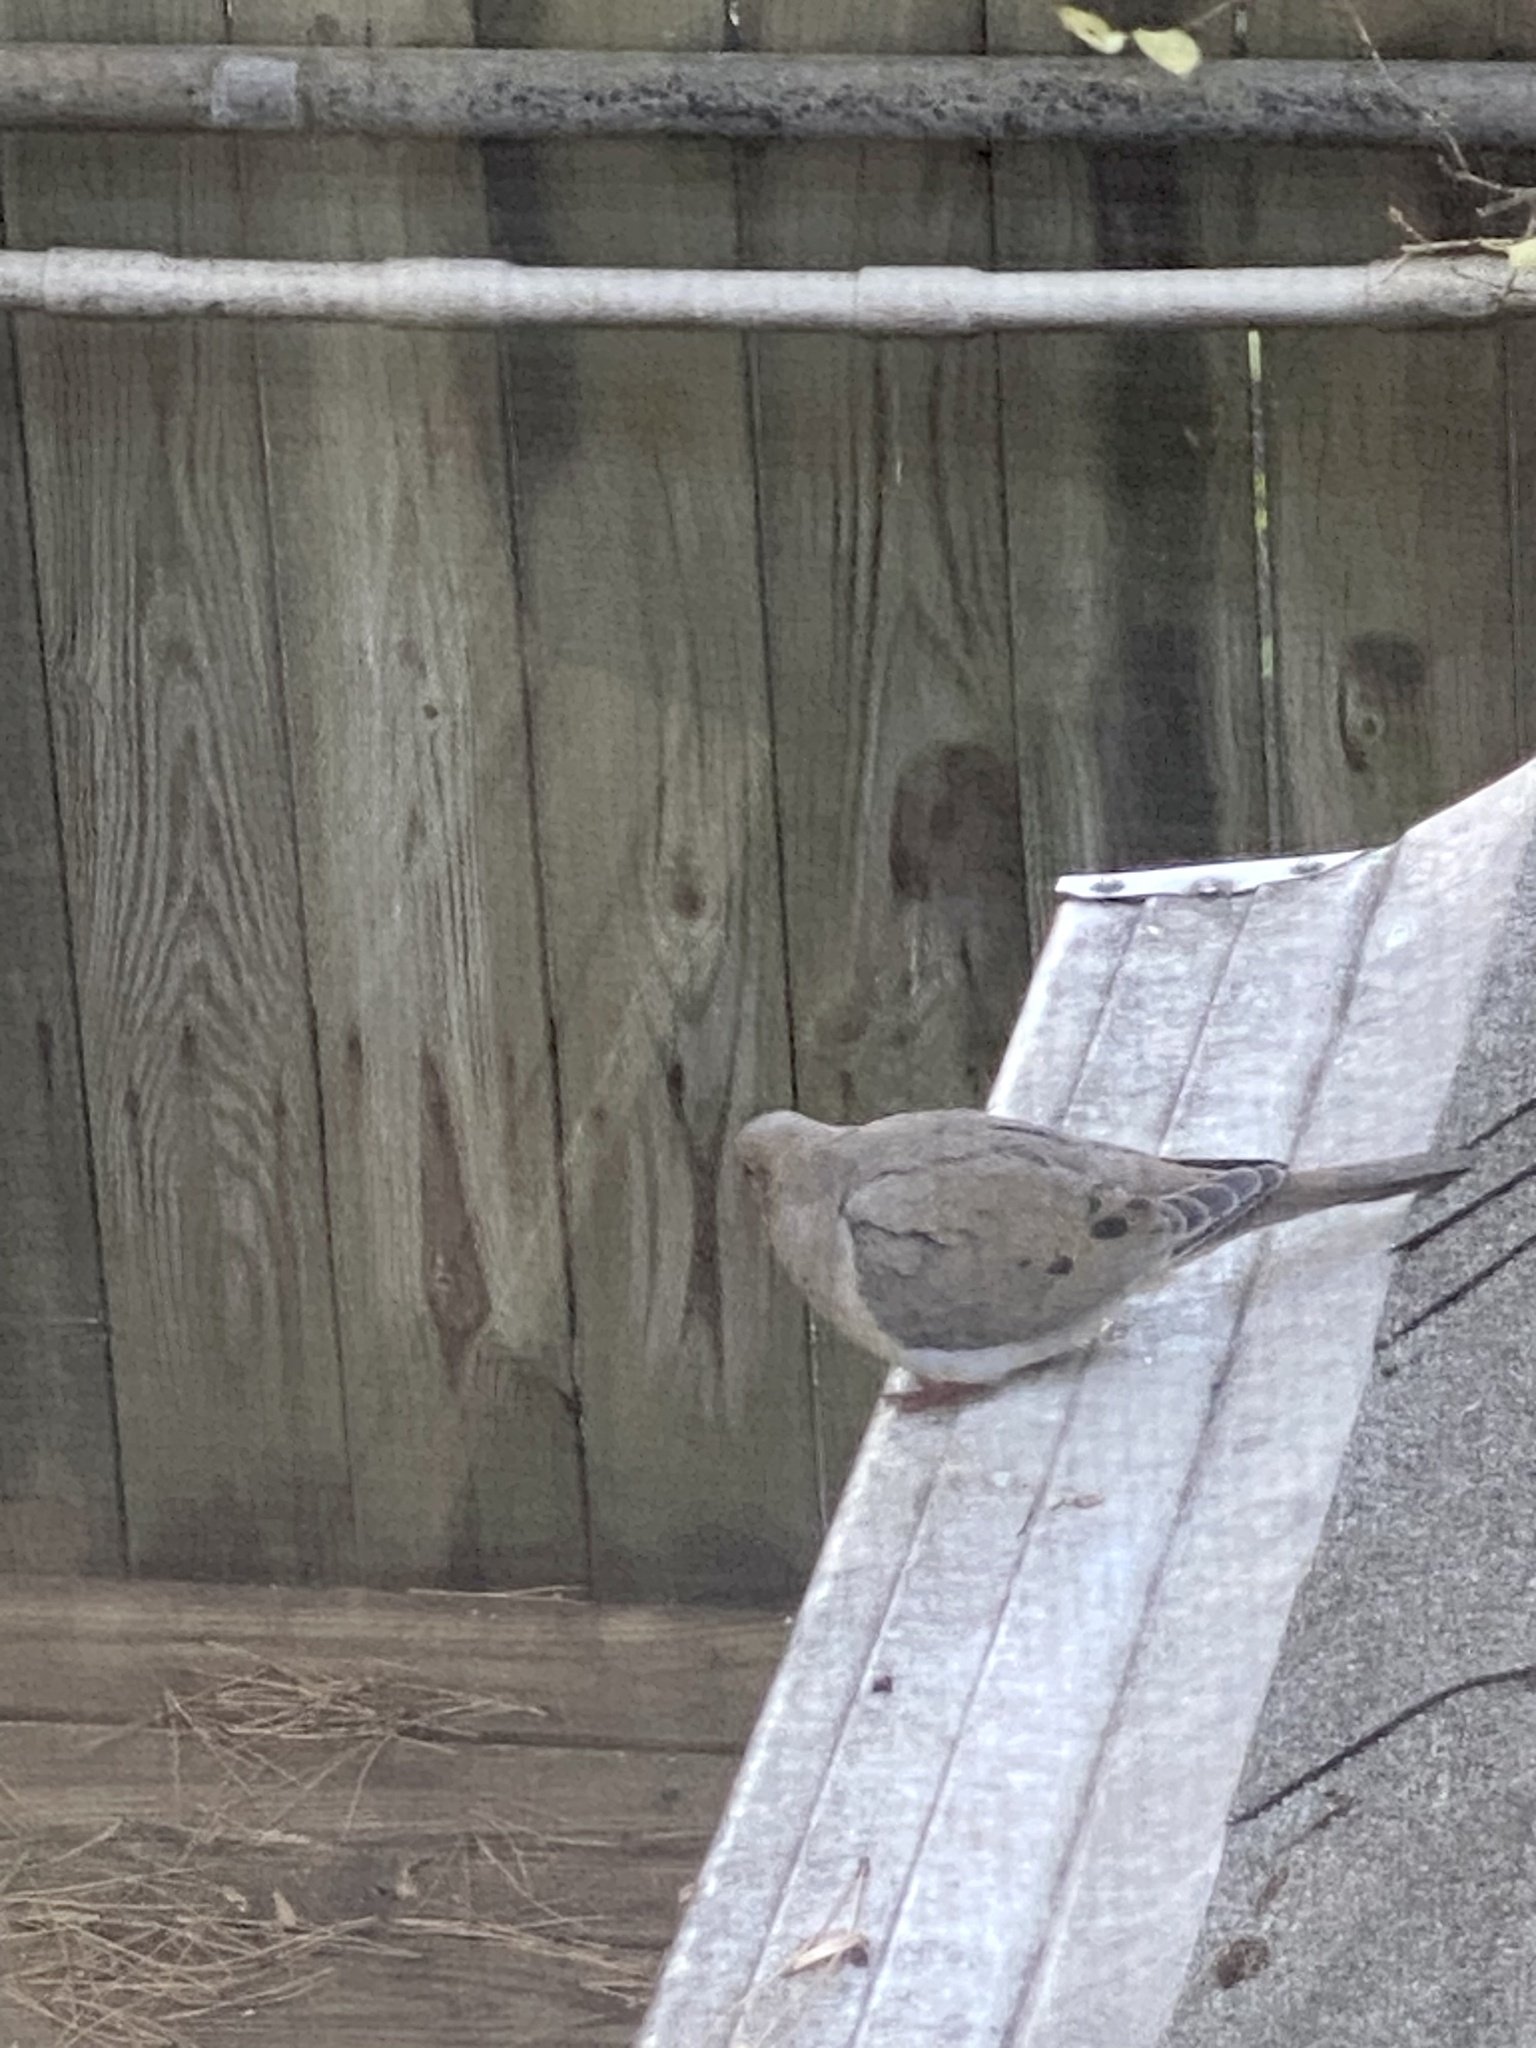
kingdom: Animalia
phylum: Chordata
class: Aves
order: Columbiformes
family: Columbidae
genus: Zenaida
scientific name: Zenaida macroura
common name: Mourning dove
